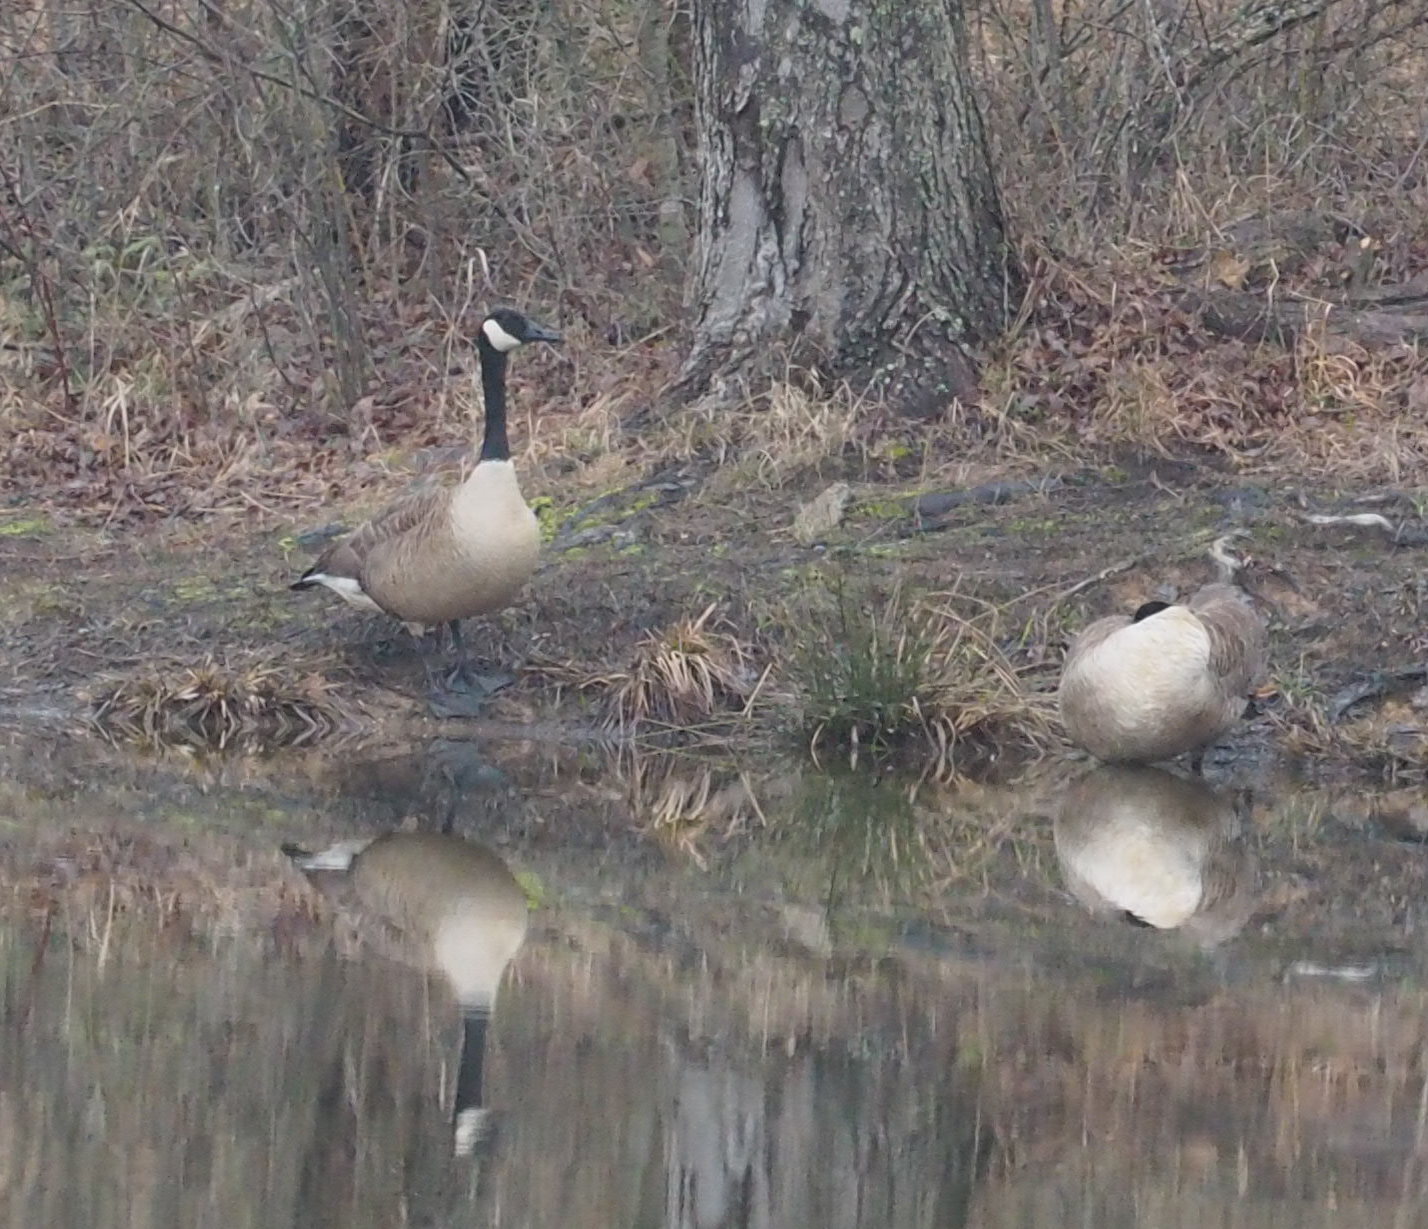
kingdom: Animalia
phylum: Chordata
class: Aves
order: Anseriformes
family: Anatidae
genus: Branta
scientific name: Branta canadensis
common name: Canada goose
